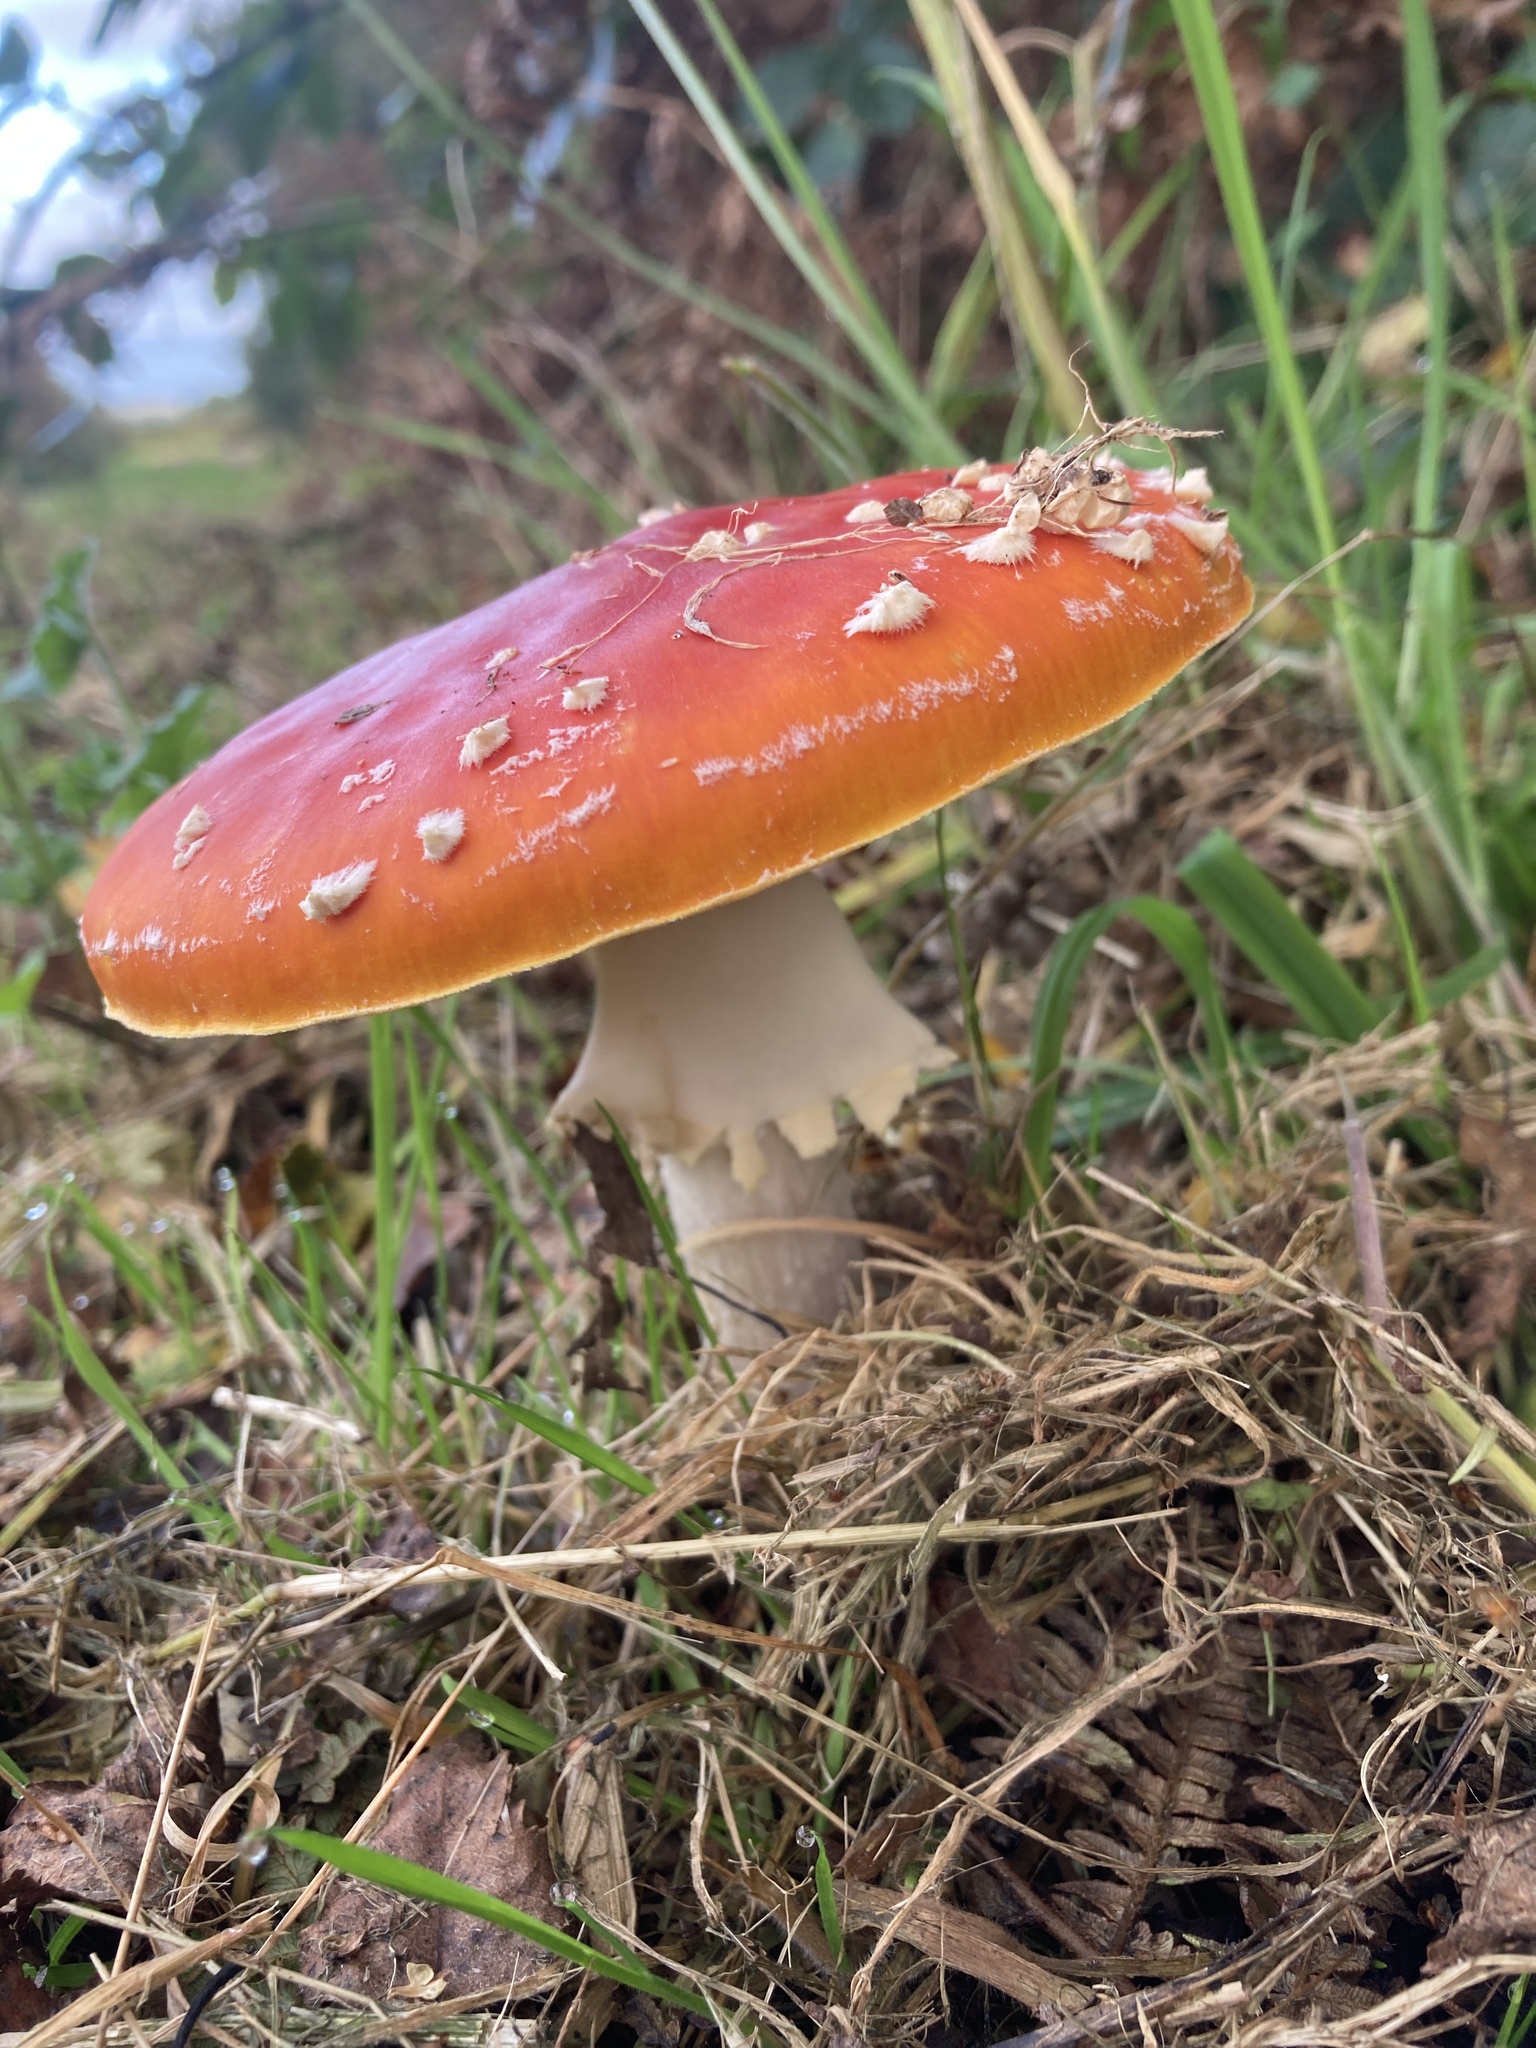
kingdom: Fungi
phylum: Basidiomycota
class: Agaricomycetes
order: Agaricales
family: Amanitaceae
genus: Amanita
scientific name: Amanita muscaria
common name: Fly agaric
